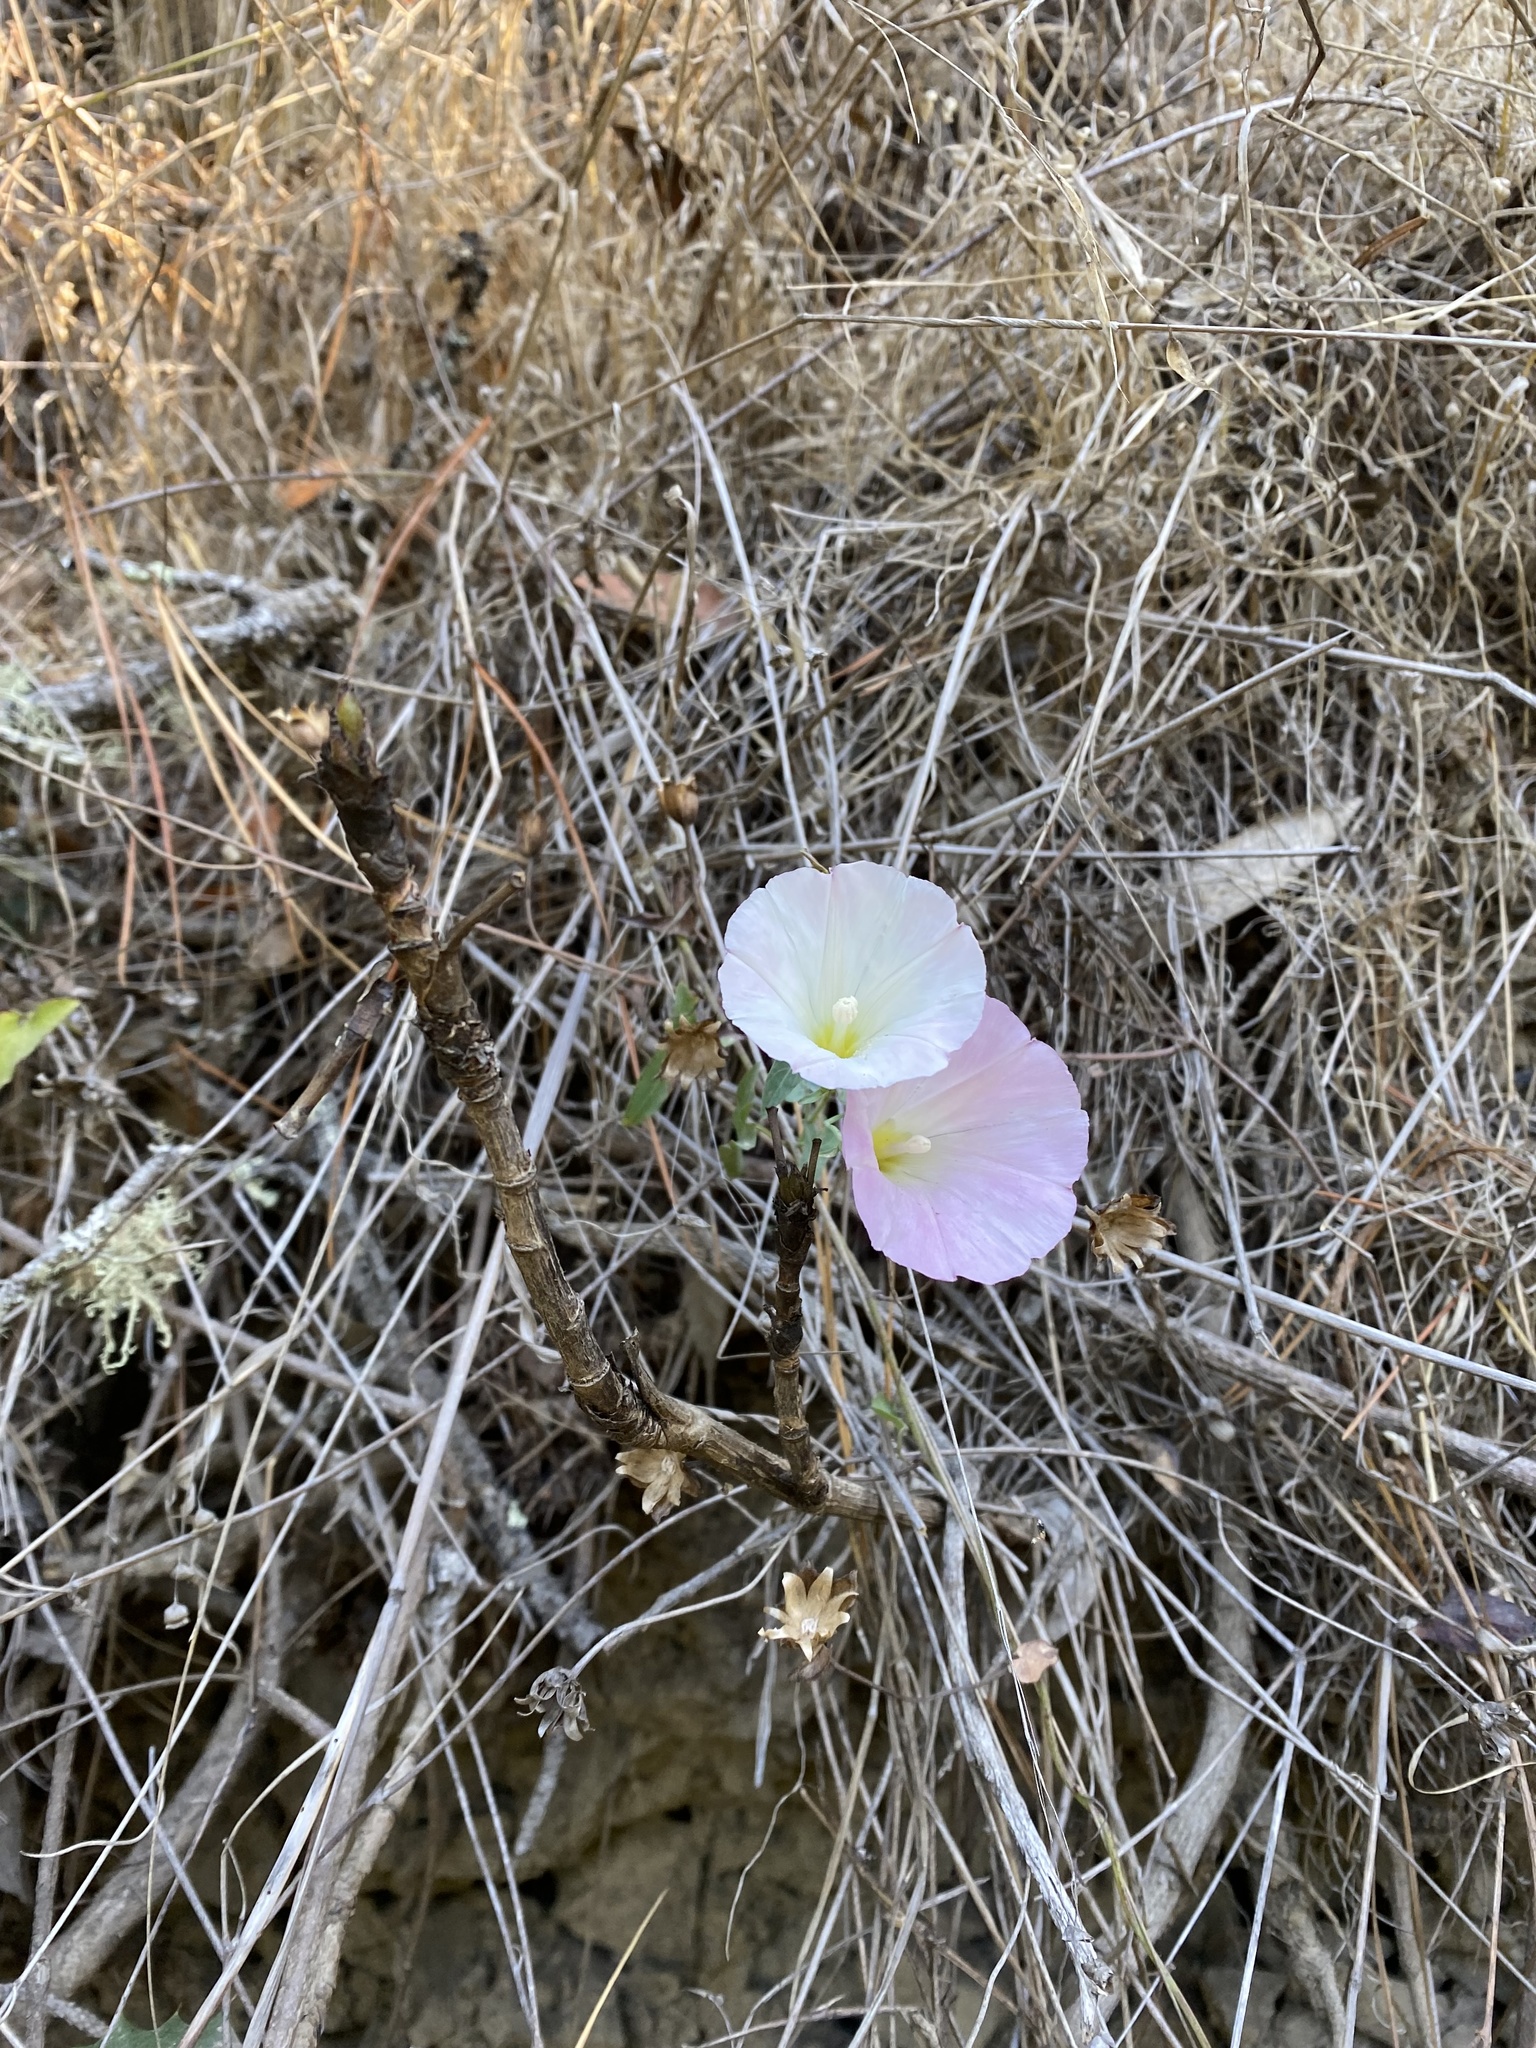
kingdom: Plantae
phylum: Tracheophyta
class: Magnoliopsida
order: Solanales
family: Convolvulaceae
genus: Calystegia
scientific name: Calystegia purpurata
